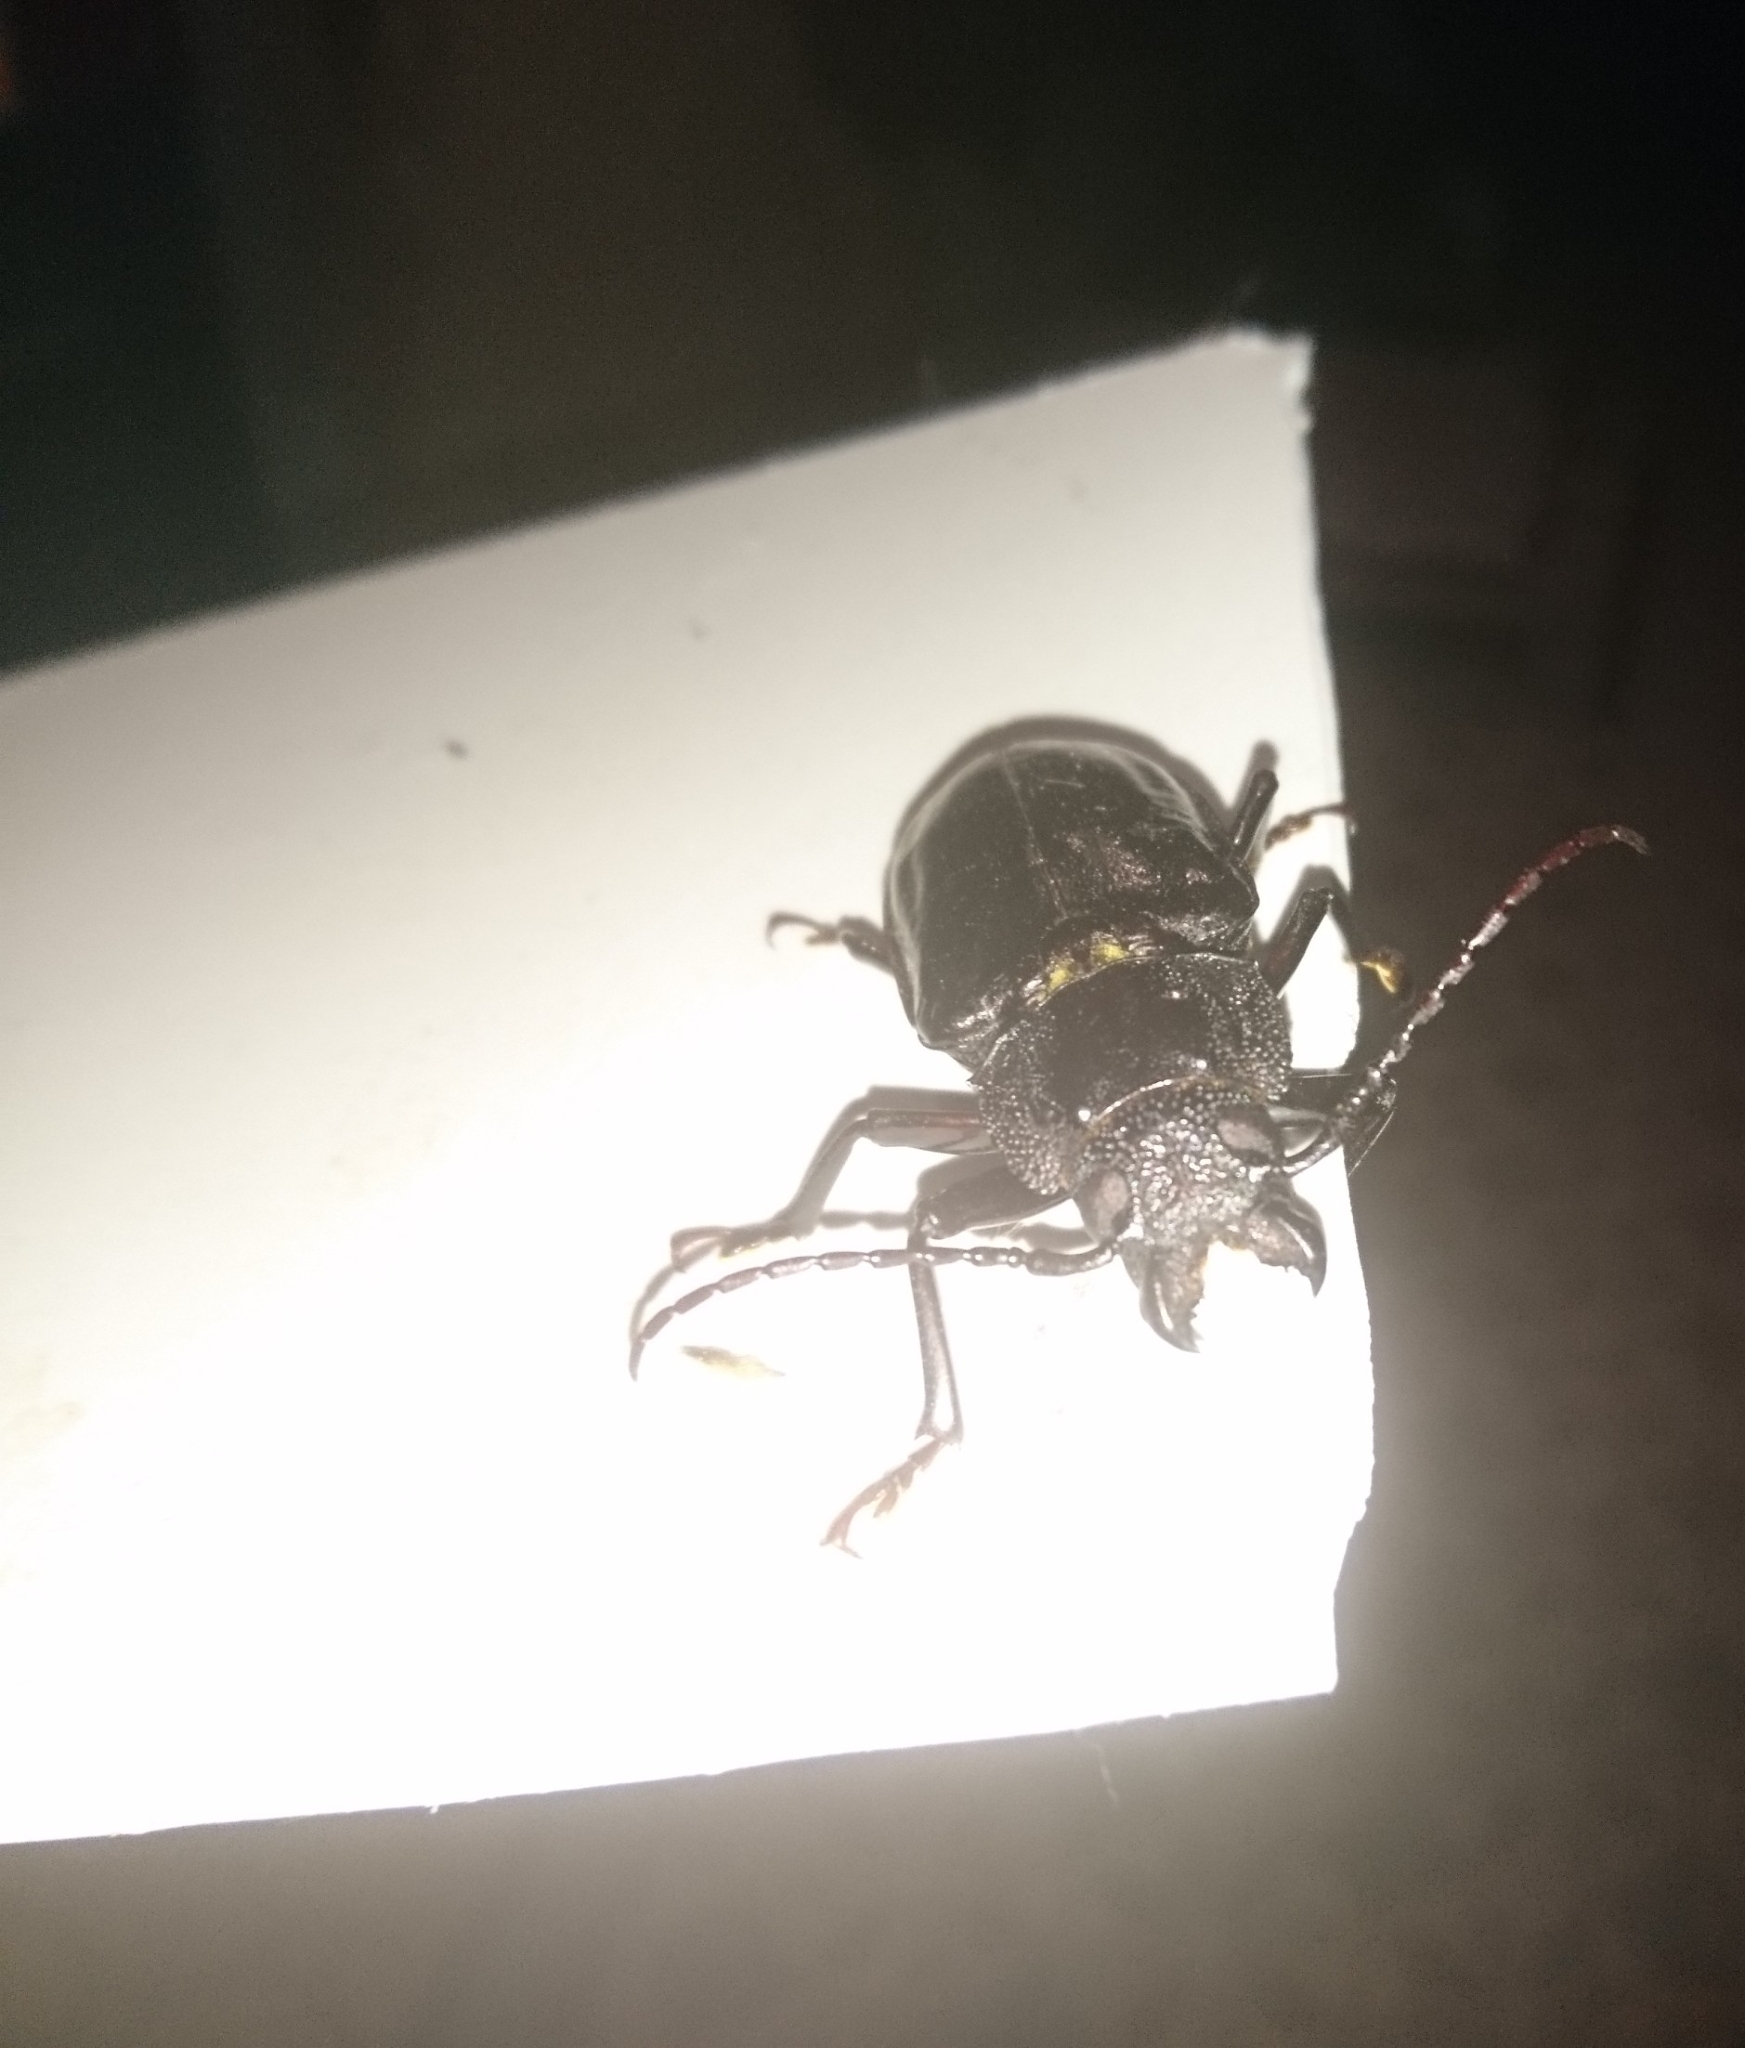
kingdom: Animalia
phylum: Arthropoda
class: Insecta
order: Coleoptera
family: Cerambycidae
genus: Mallodon
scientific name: Mallodon dasystomum
